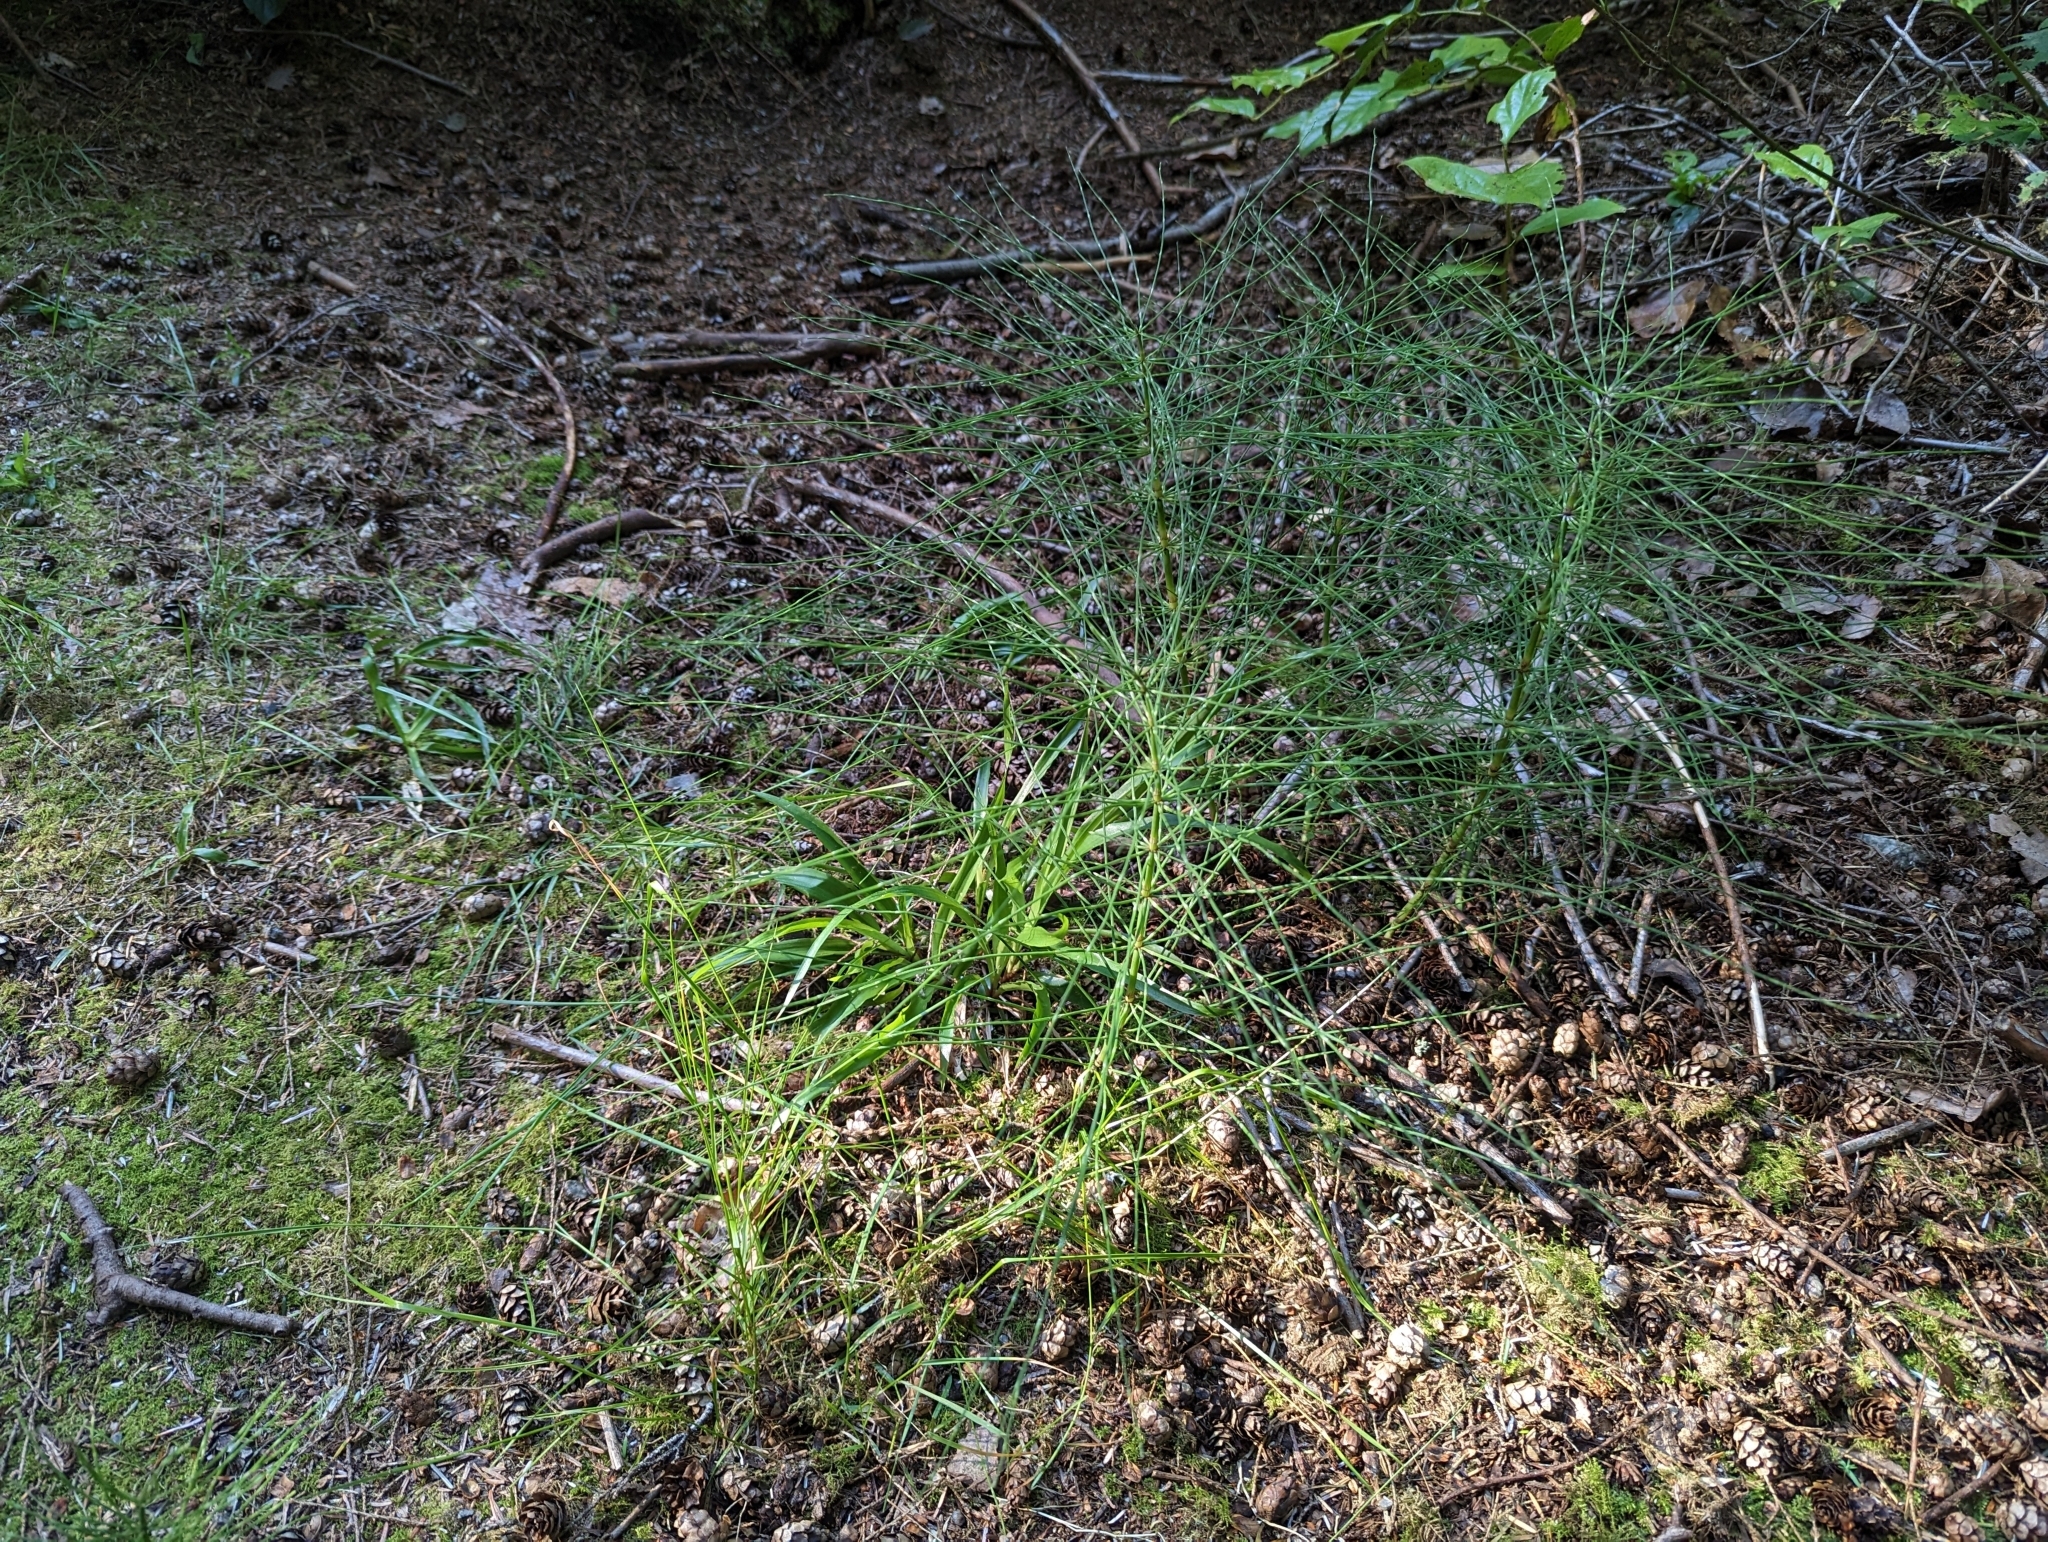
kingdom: Plantae
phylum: Tracheophyta
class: Polypodiopsida
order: Equisetales
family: Equisetaceae
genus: Equisetum
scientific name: Equisetum arvense
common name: Field horsetail
